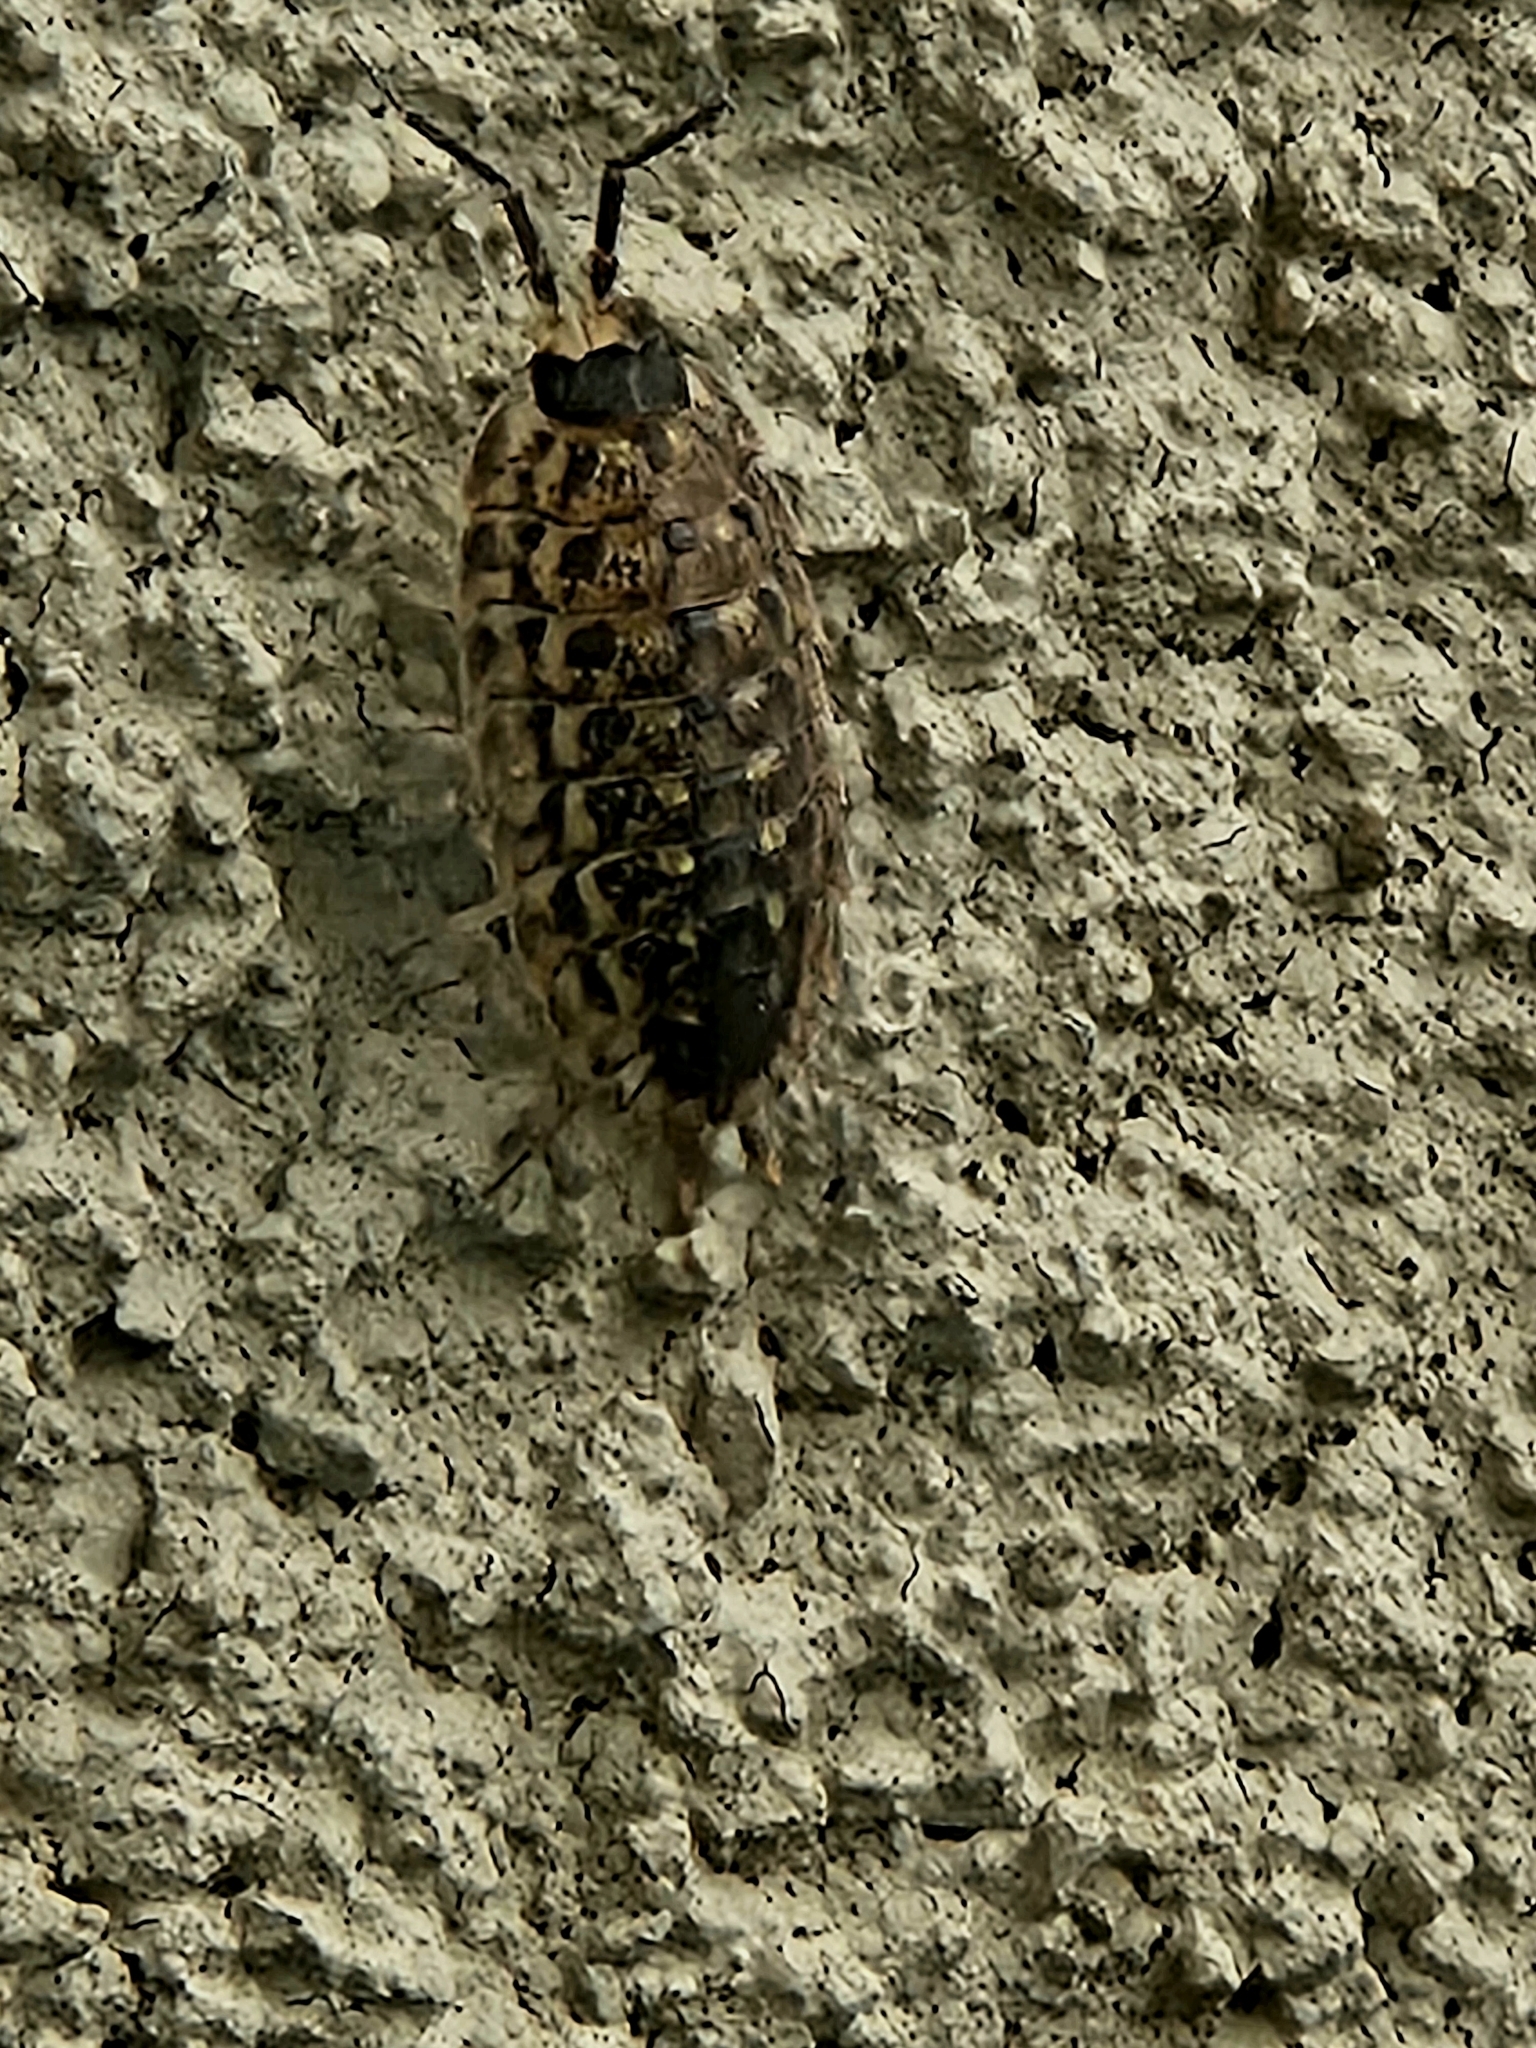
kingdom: Animalia
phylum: Arthropoda
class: Malacostraca
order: Isopoda
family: Porcellionidae
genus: Porcellio
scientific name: Porcellio spinicornis
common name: Painted woodlouse
